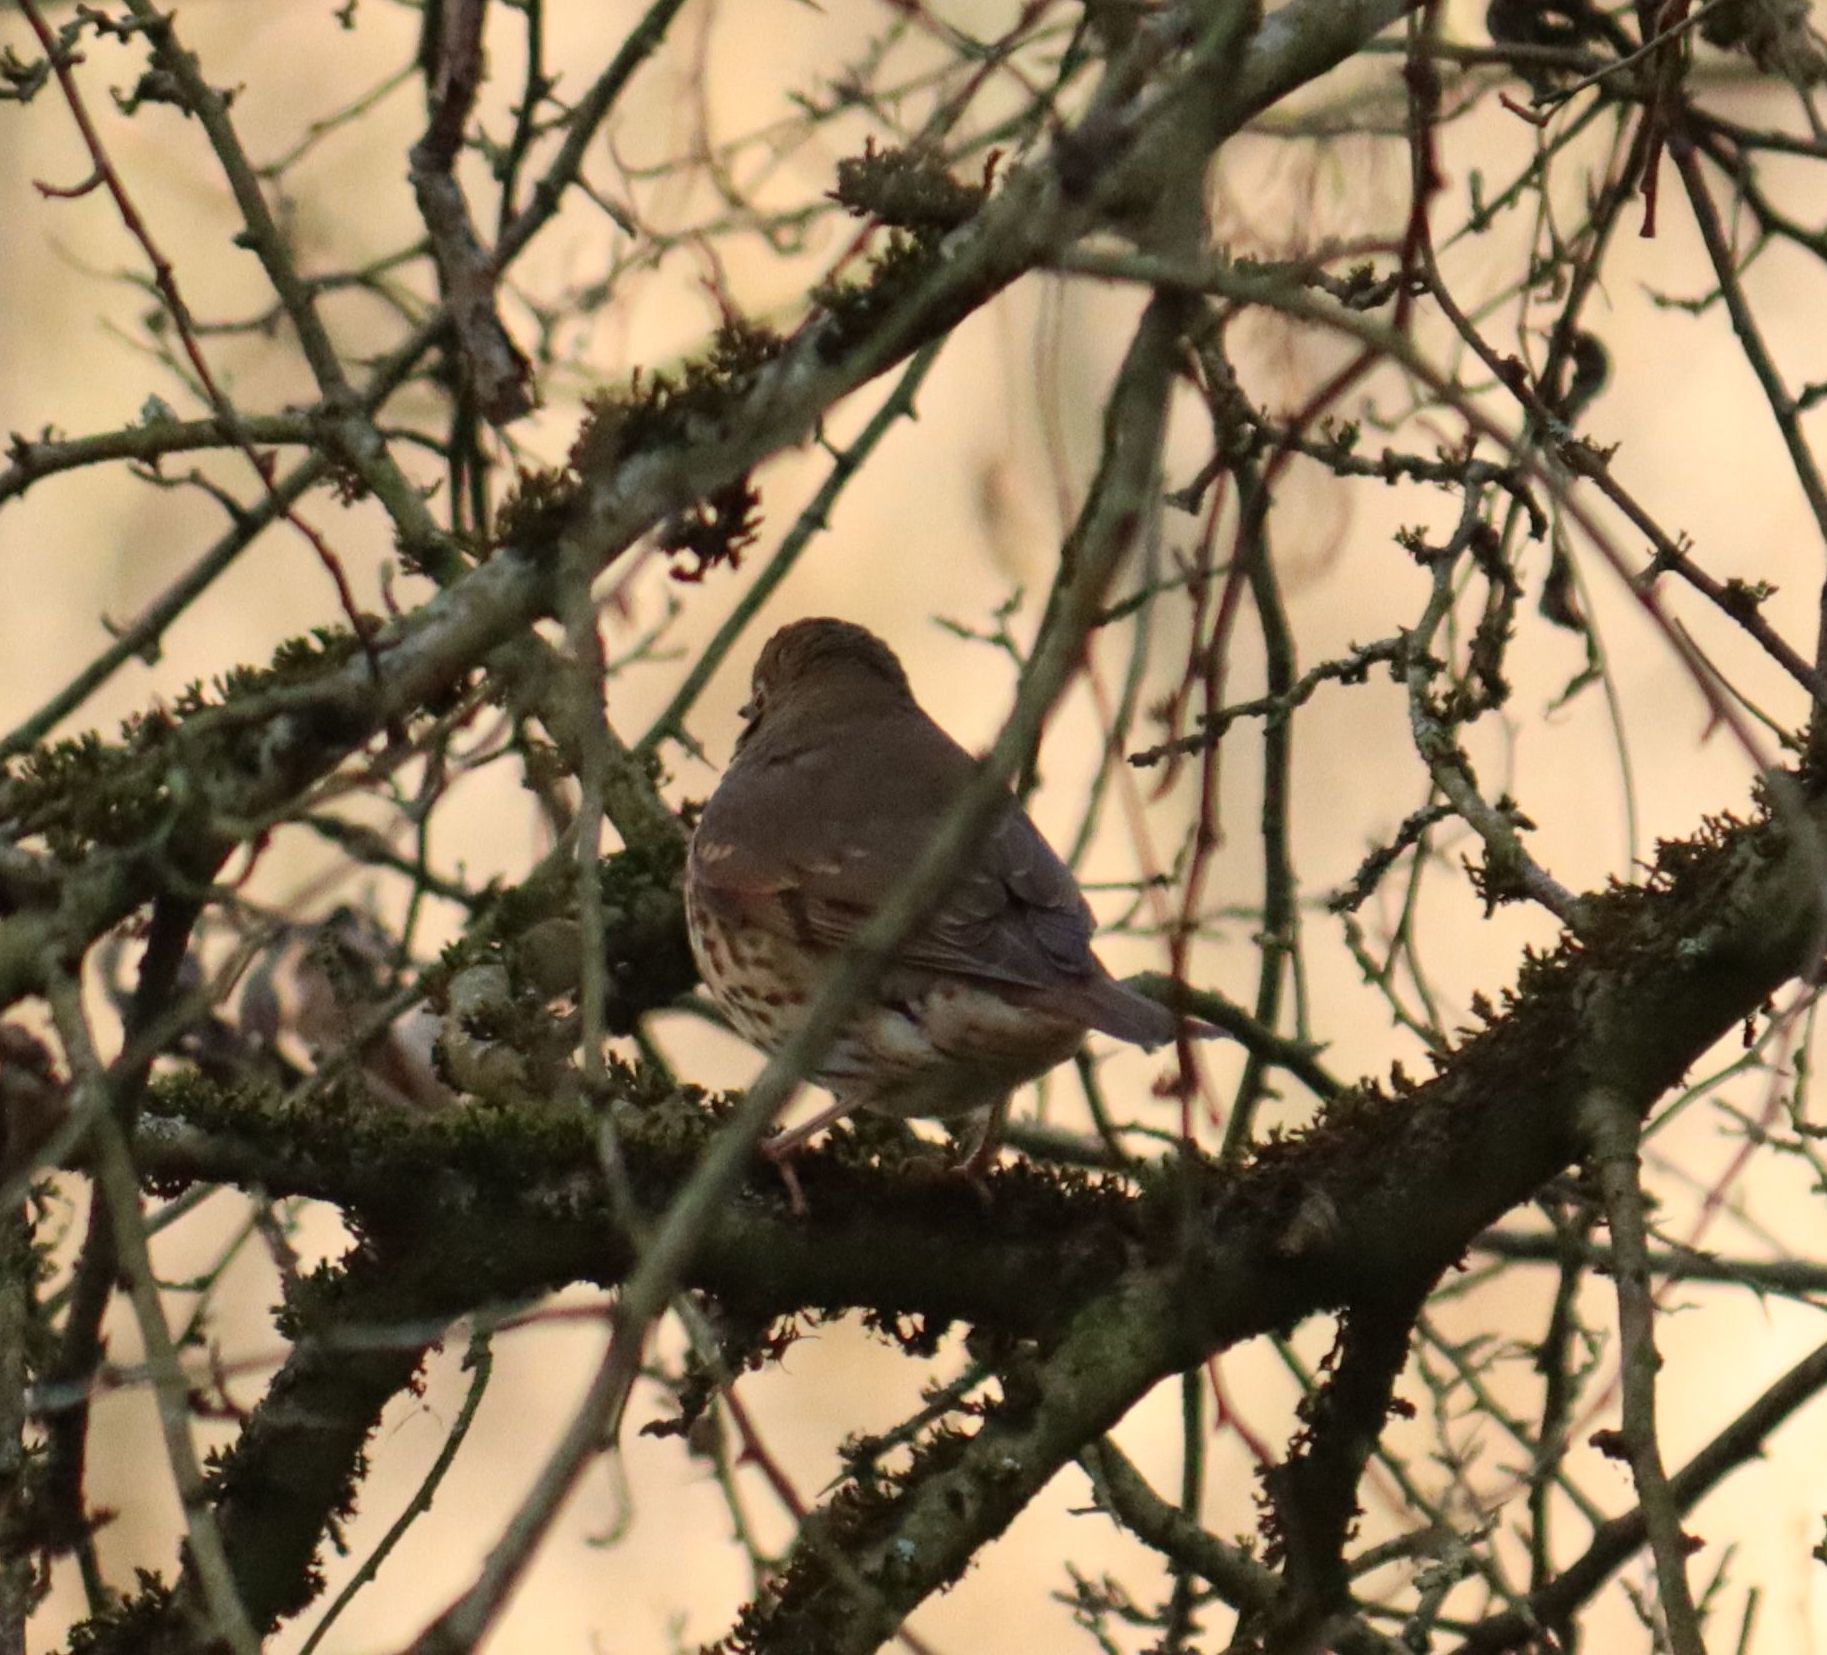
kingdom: Animalia
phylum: Chordata
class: Aves
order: Passeriformes
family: Turdidae
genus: Turdus
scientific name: Turdus philomelos
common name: Song thrush
